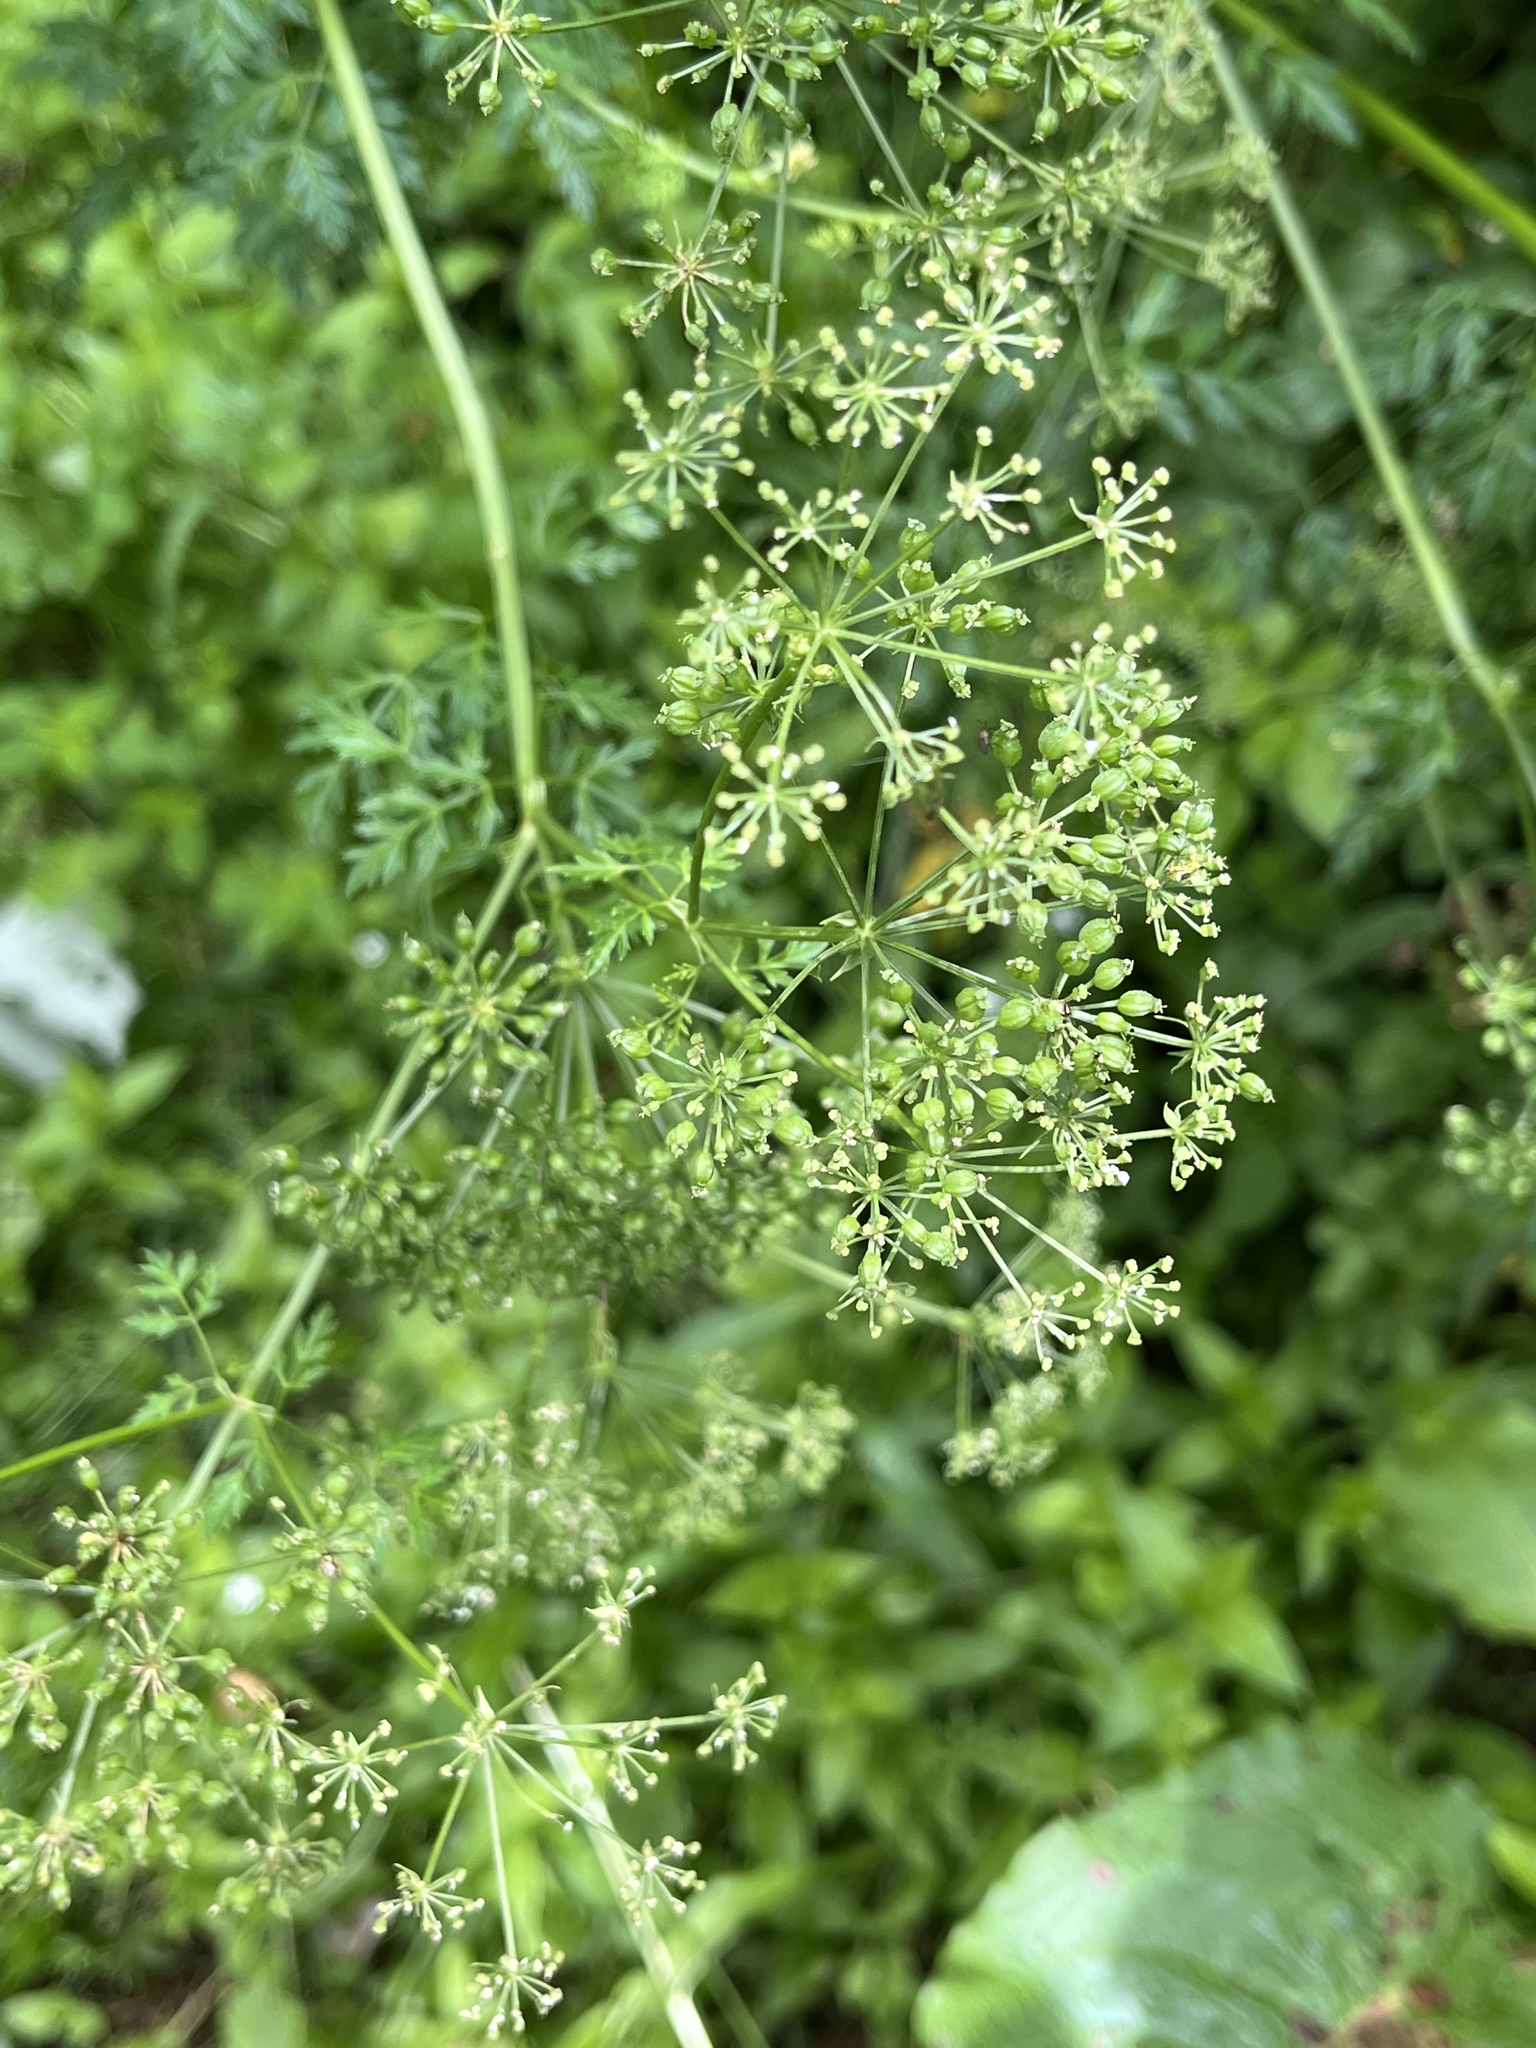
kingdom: Plantae
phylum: Tracheophyta
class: Magnoliopsida
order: Apiales
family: Apiaceae
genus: Conium
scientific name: Conium maculatum
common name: Hemlock
